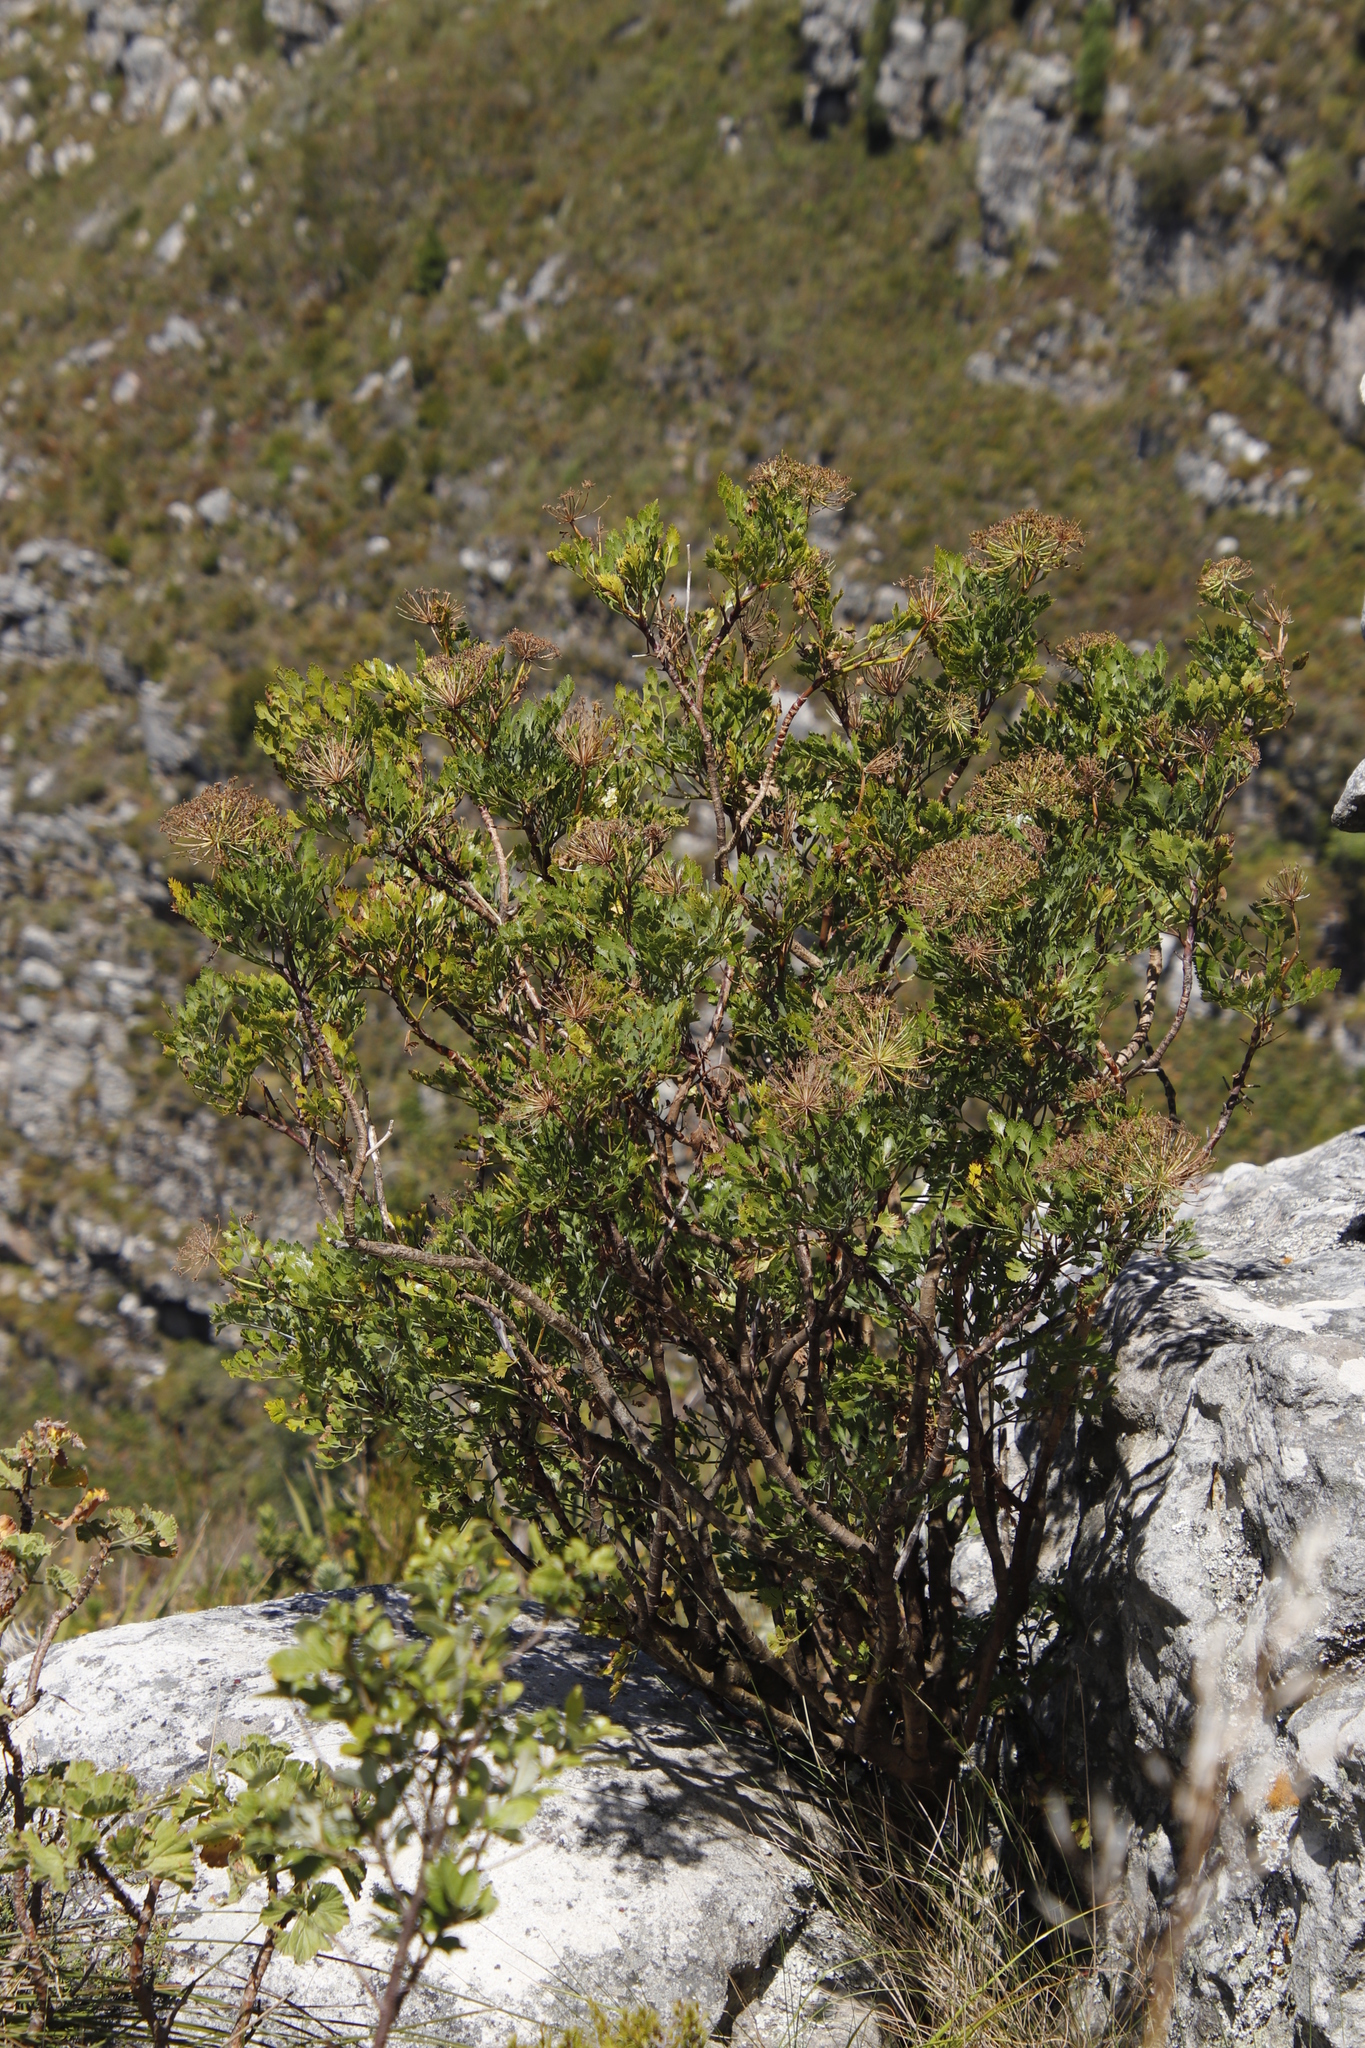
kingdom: Plantae
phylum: Tracheophyta
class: Magnoliopsida
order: Apiales
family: Apiaceae
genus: Notobubon
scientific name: Notobubon galbanum
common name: Blisterbush
